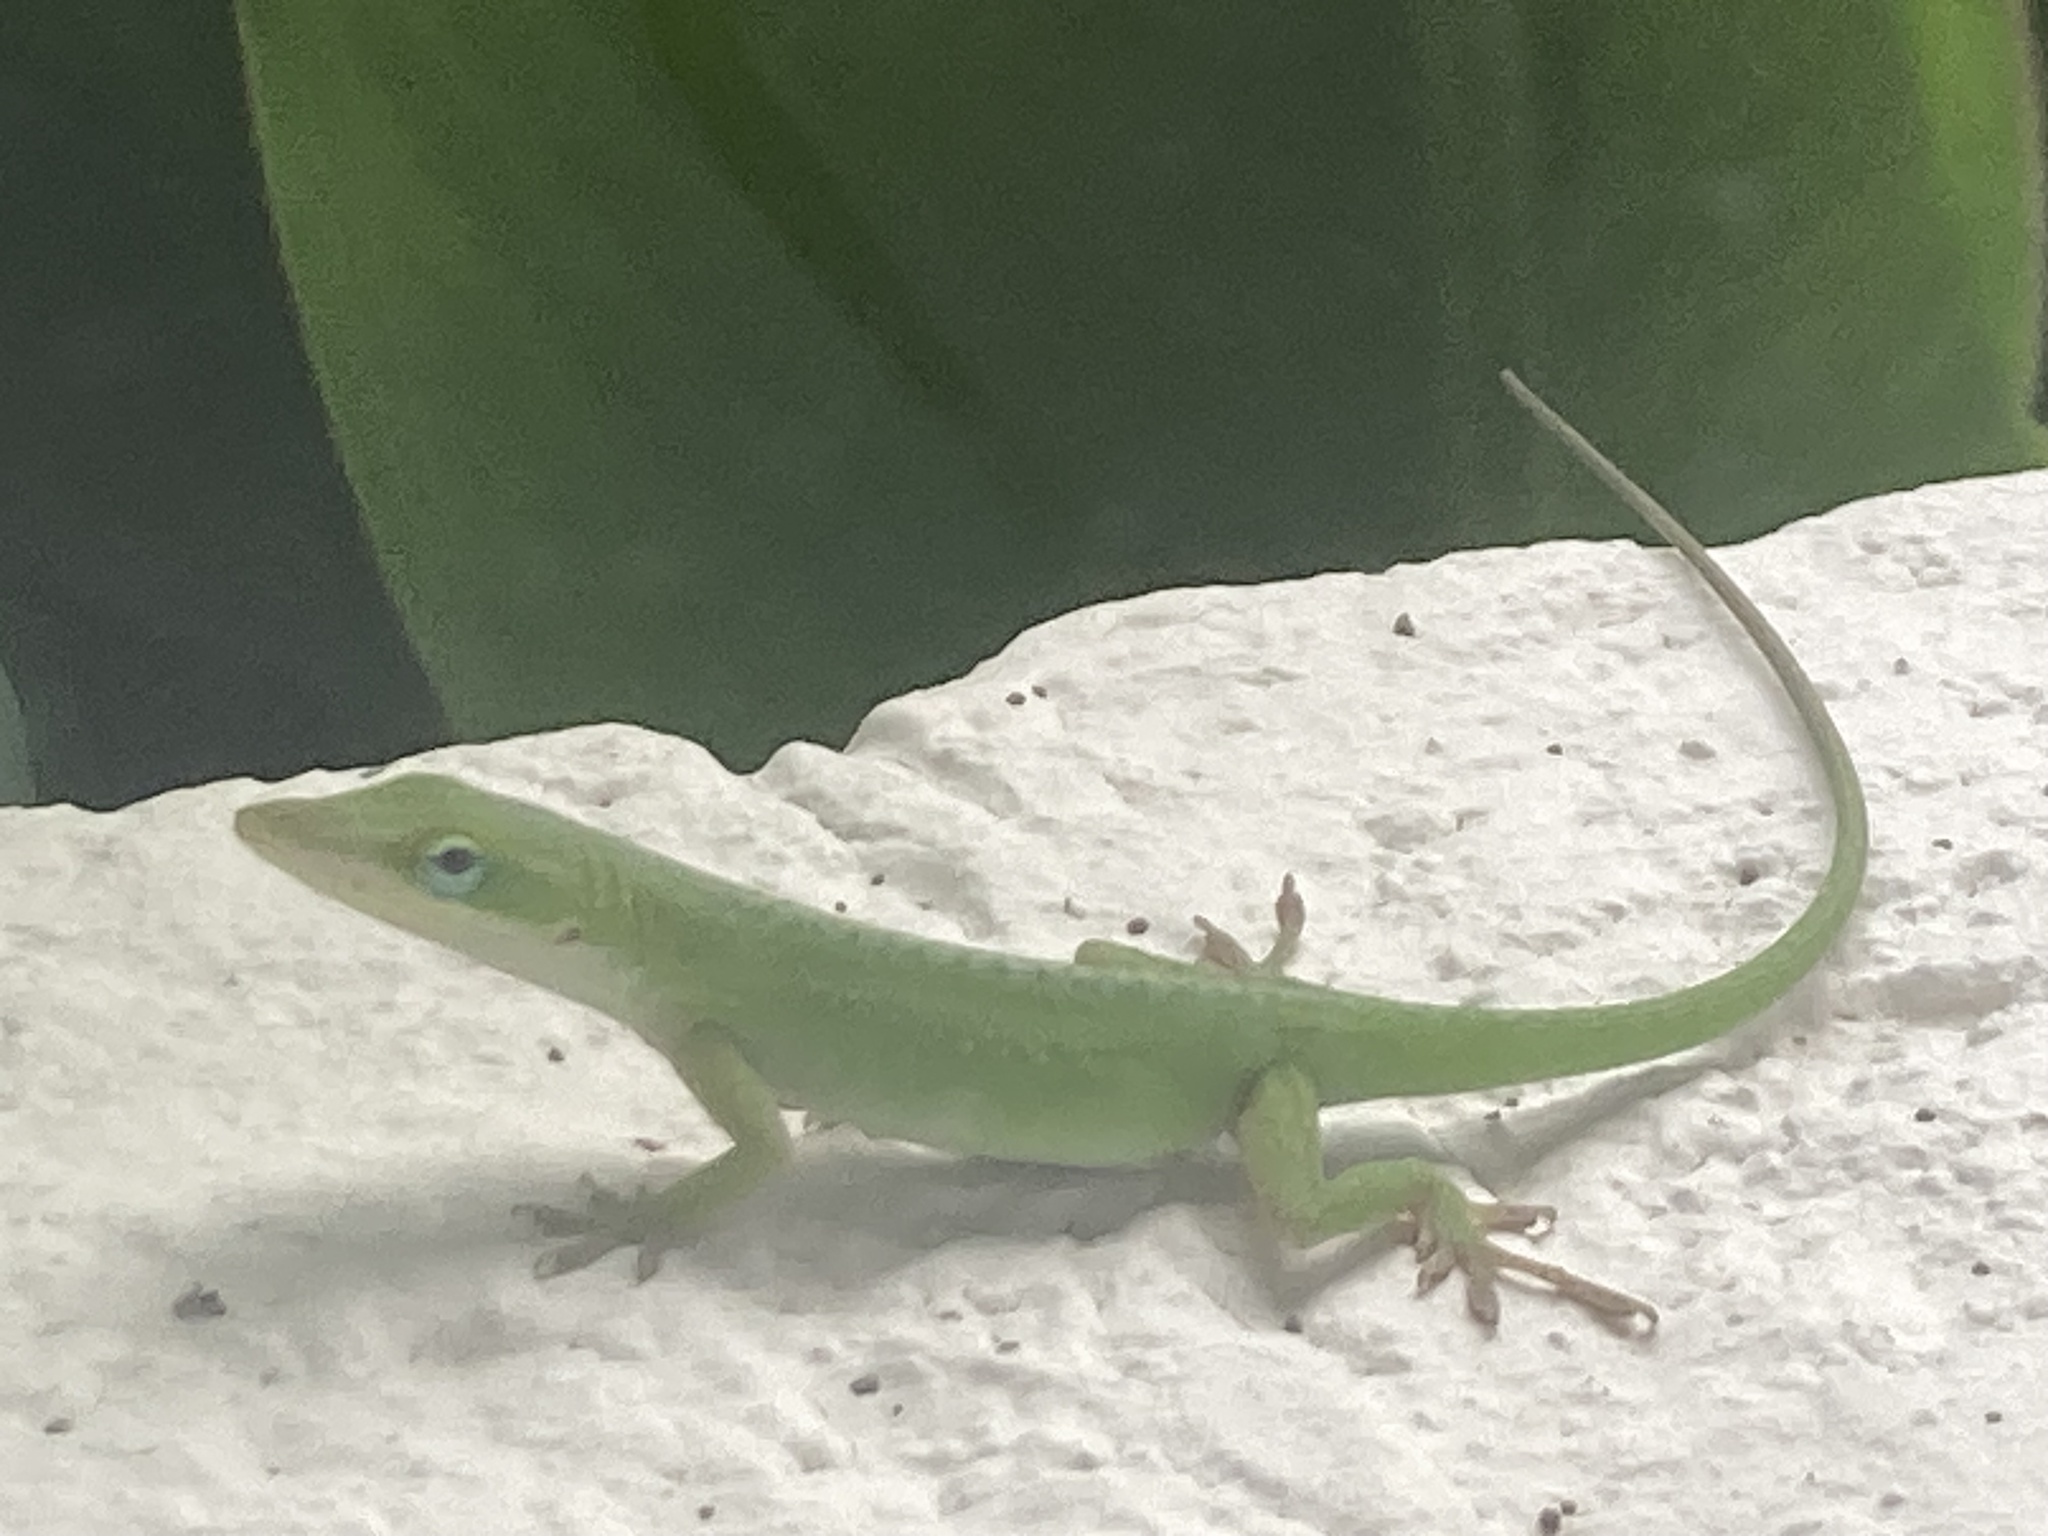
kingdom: Animalia
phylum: Chordata
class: Squamata
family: Dactyloidae
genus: Anolis
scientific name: Anolis carolinensis
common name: Green anole
